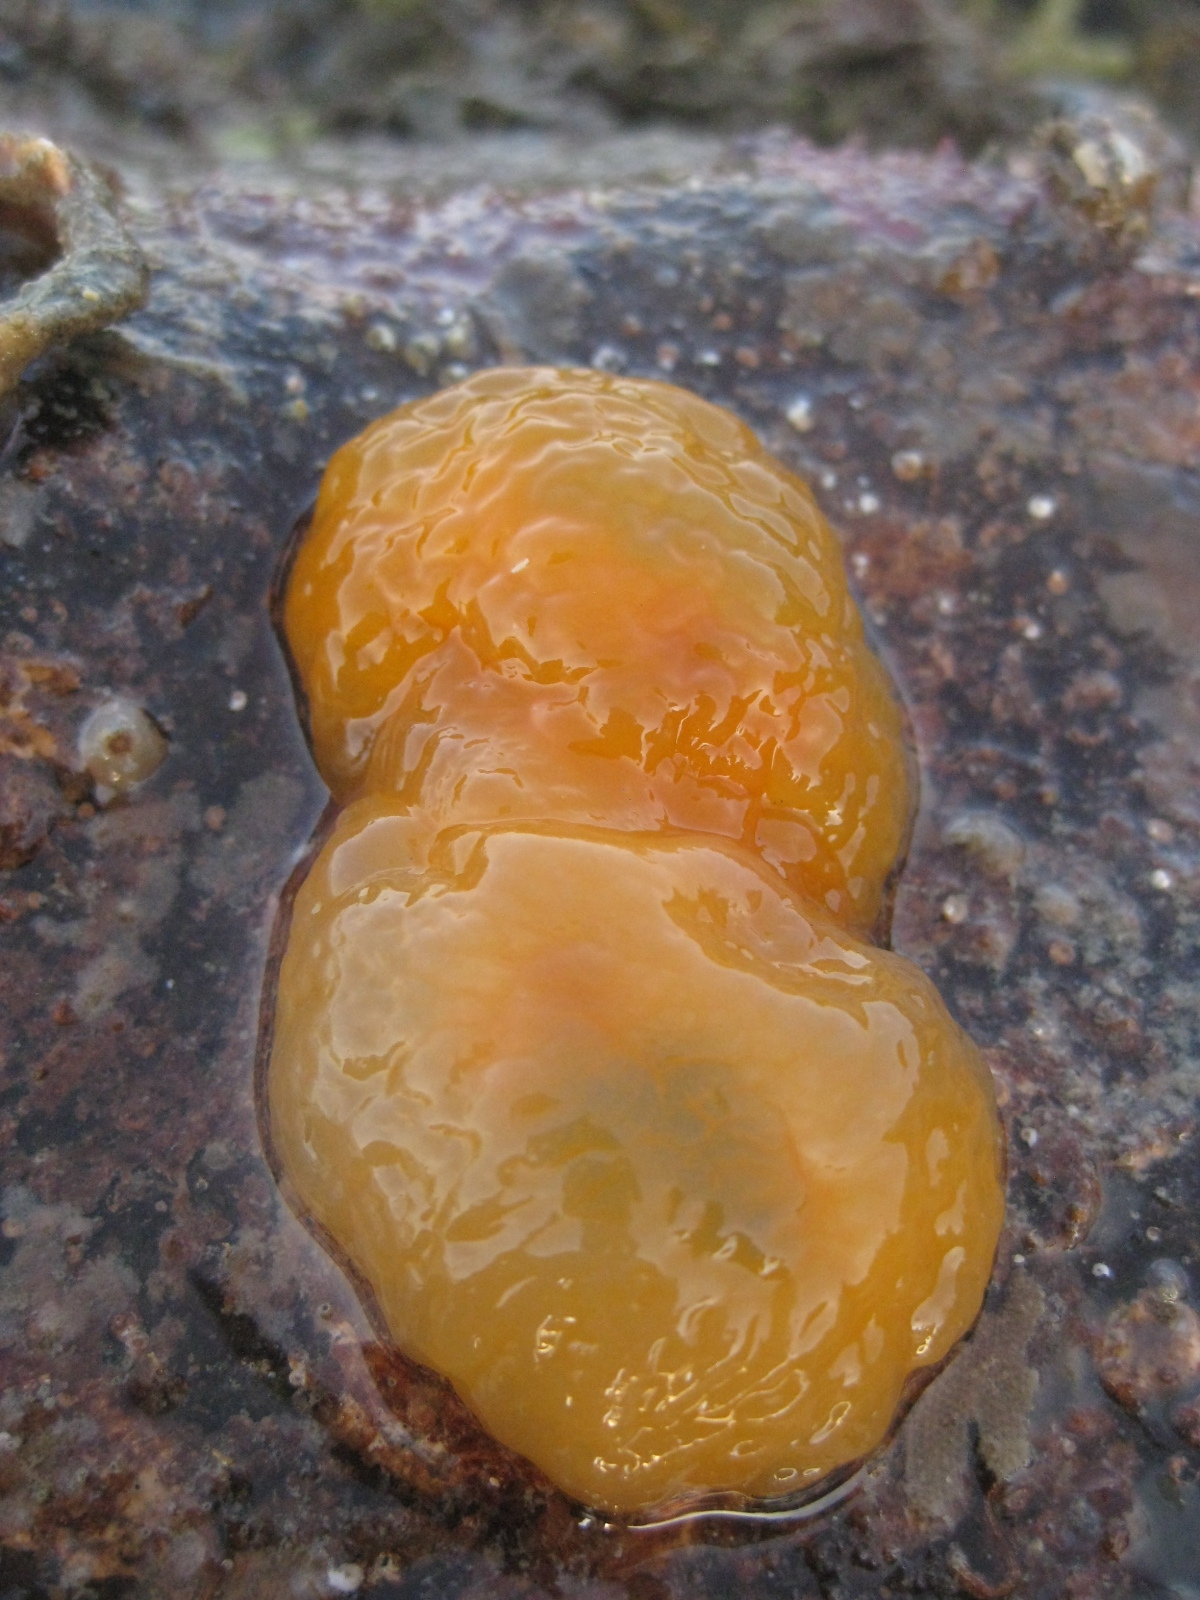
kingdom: Animalia
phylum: Mollusca
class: Gastropoda
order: Pleurobranchida
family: Pleurobranchidae
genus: Berthellina
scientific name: Berthellina citrina
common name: Lemon pleurobranch
